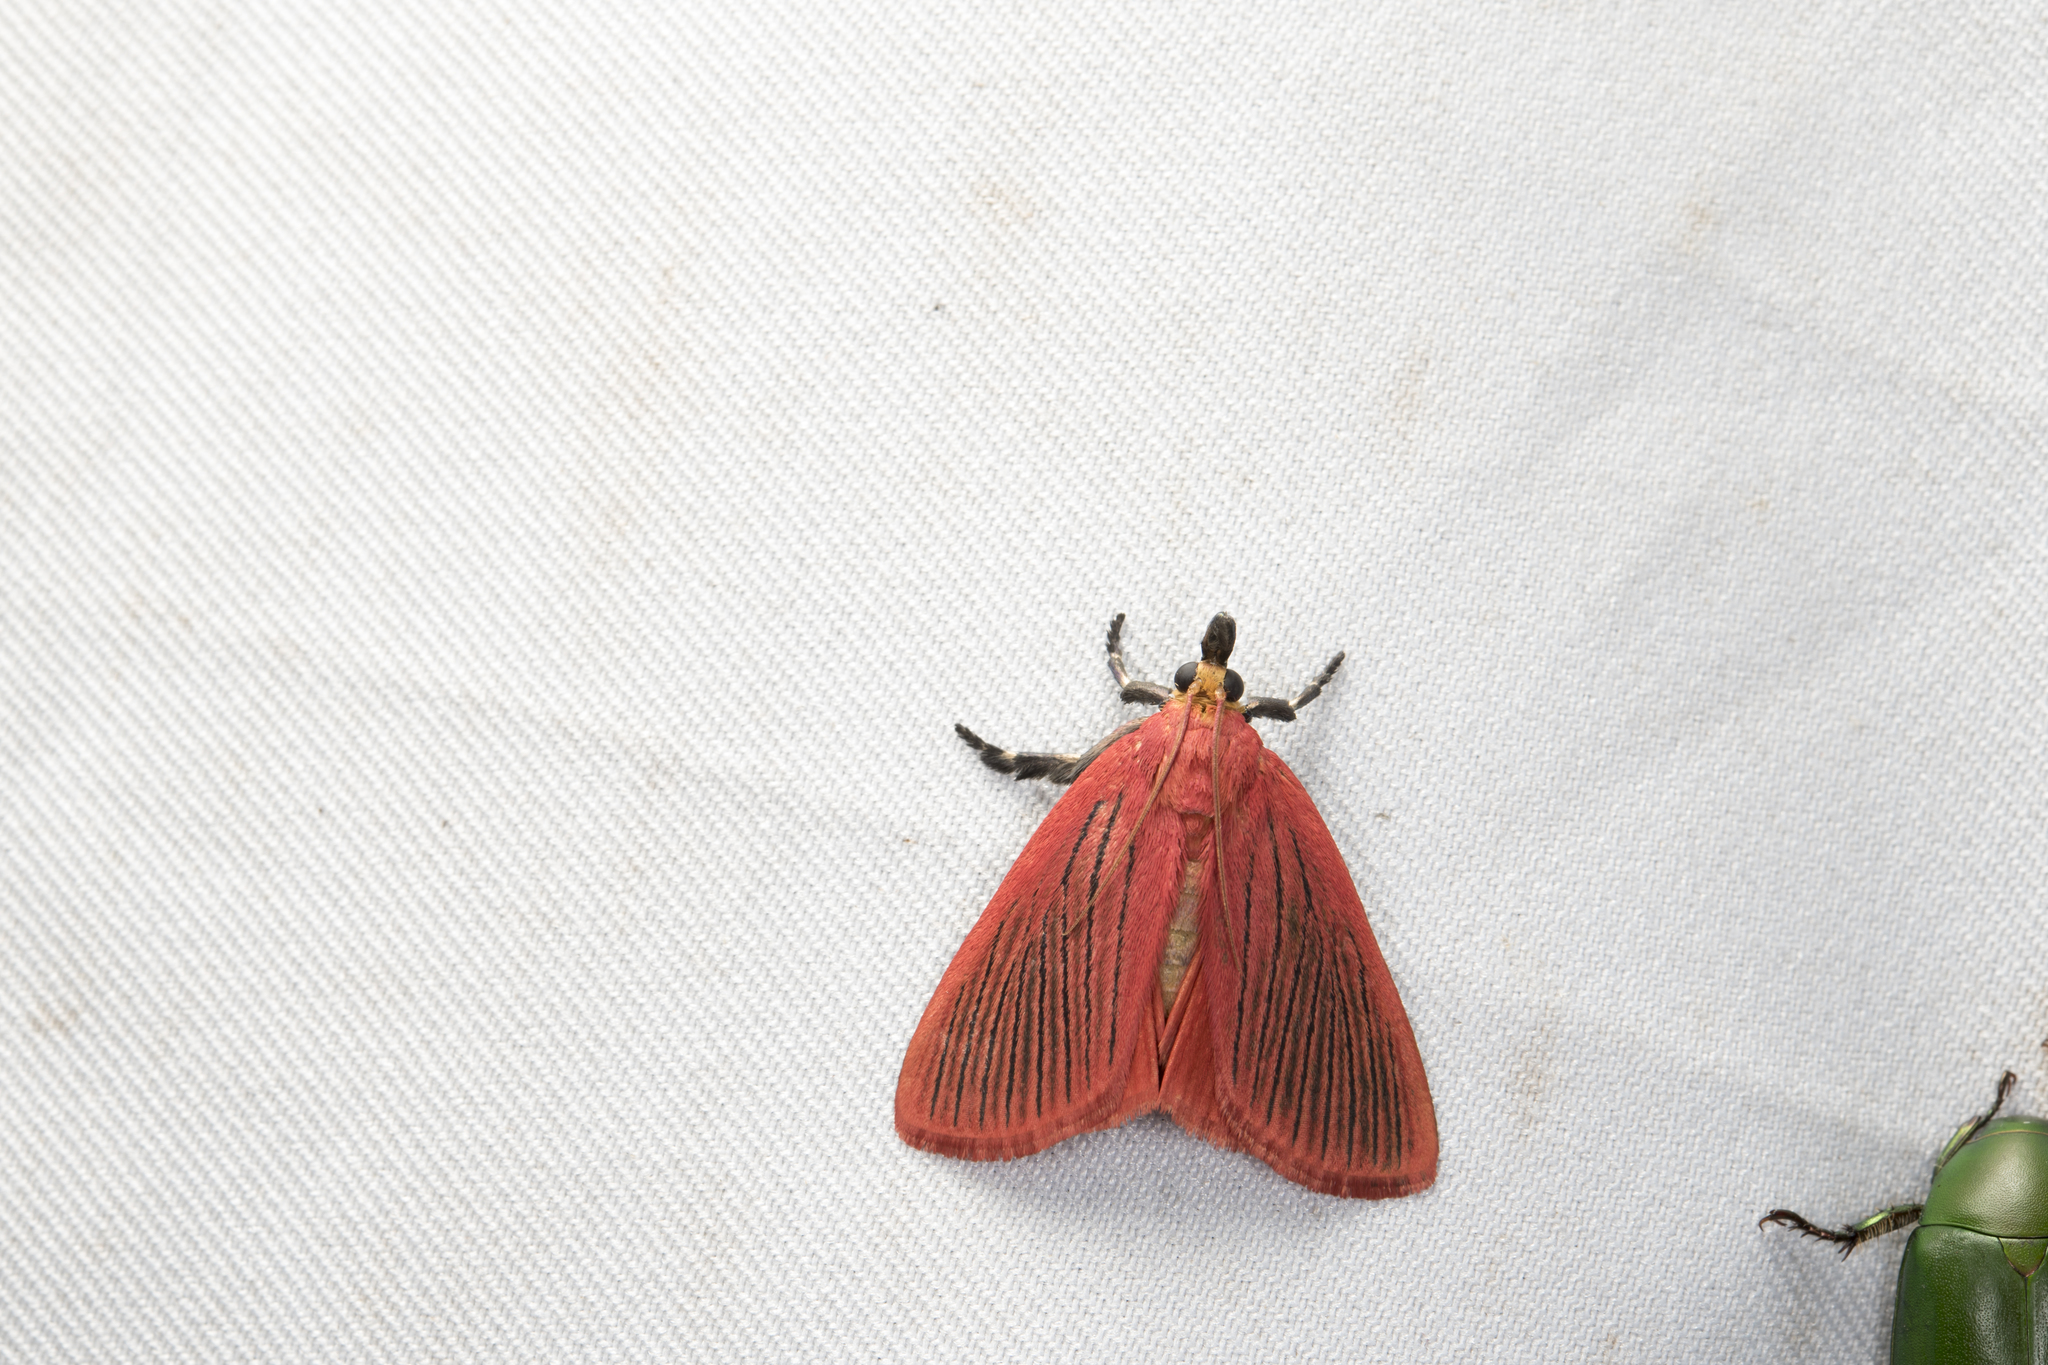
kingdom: Animalia
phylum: Arthropoda
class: Insecta
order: Lepidoptera
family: Pyralidae
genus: Arctioblepsis
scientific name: Arctioblepsis rubida
